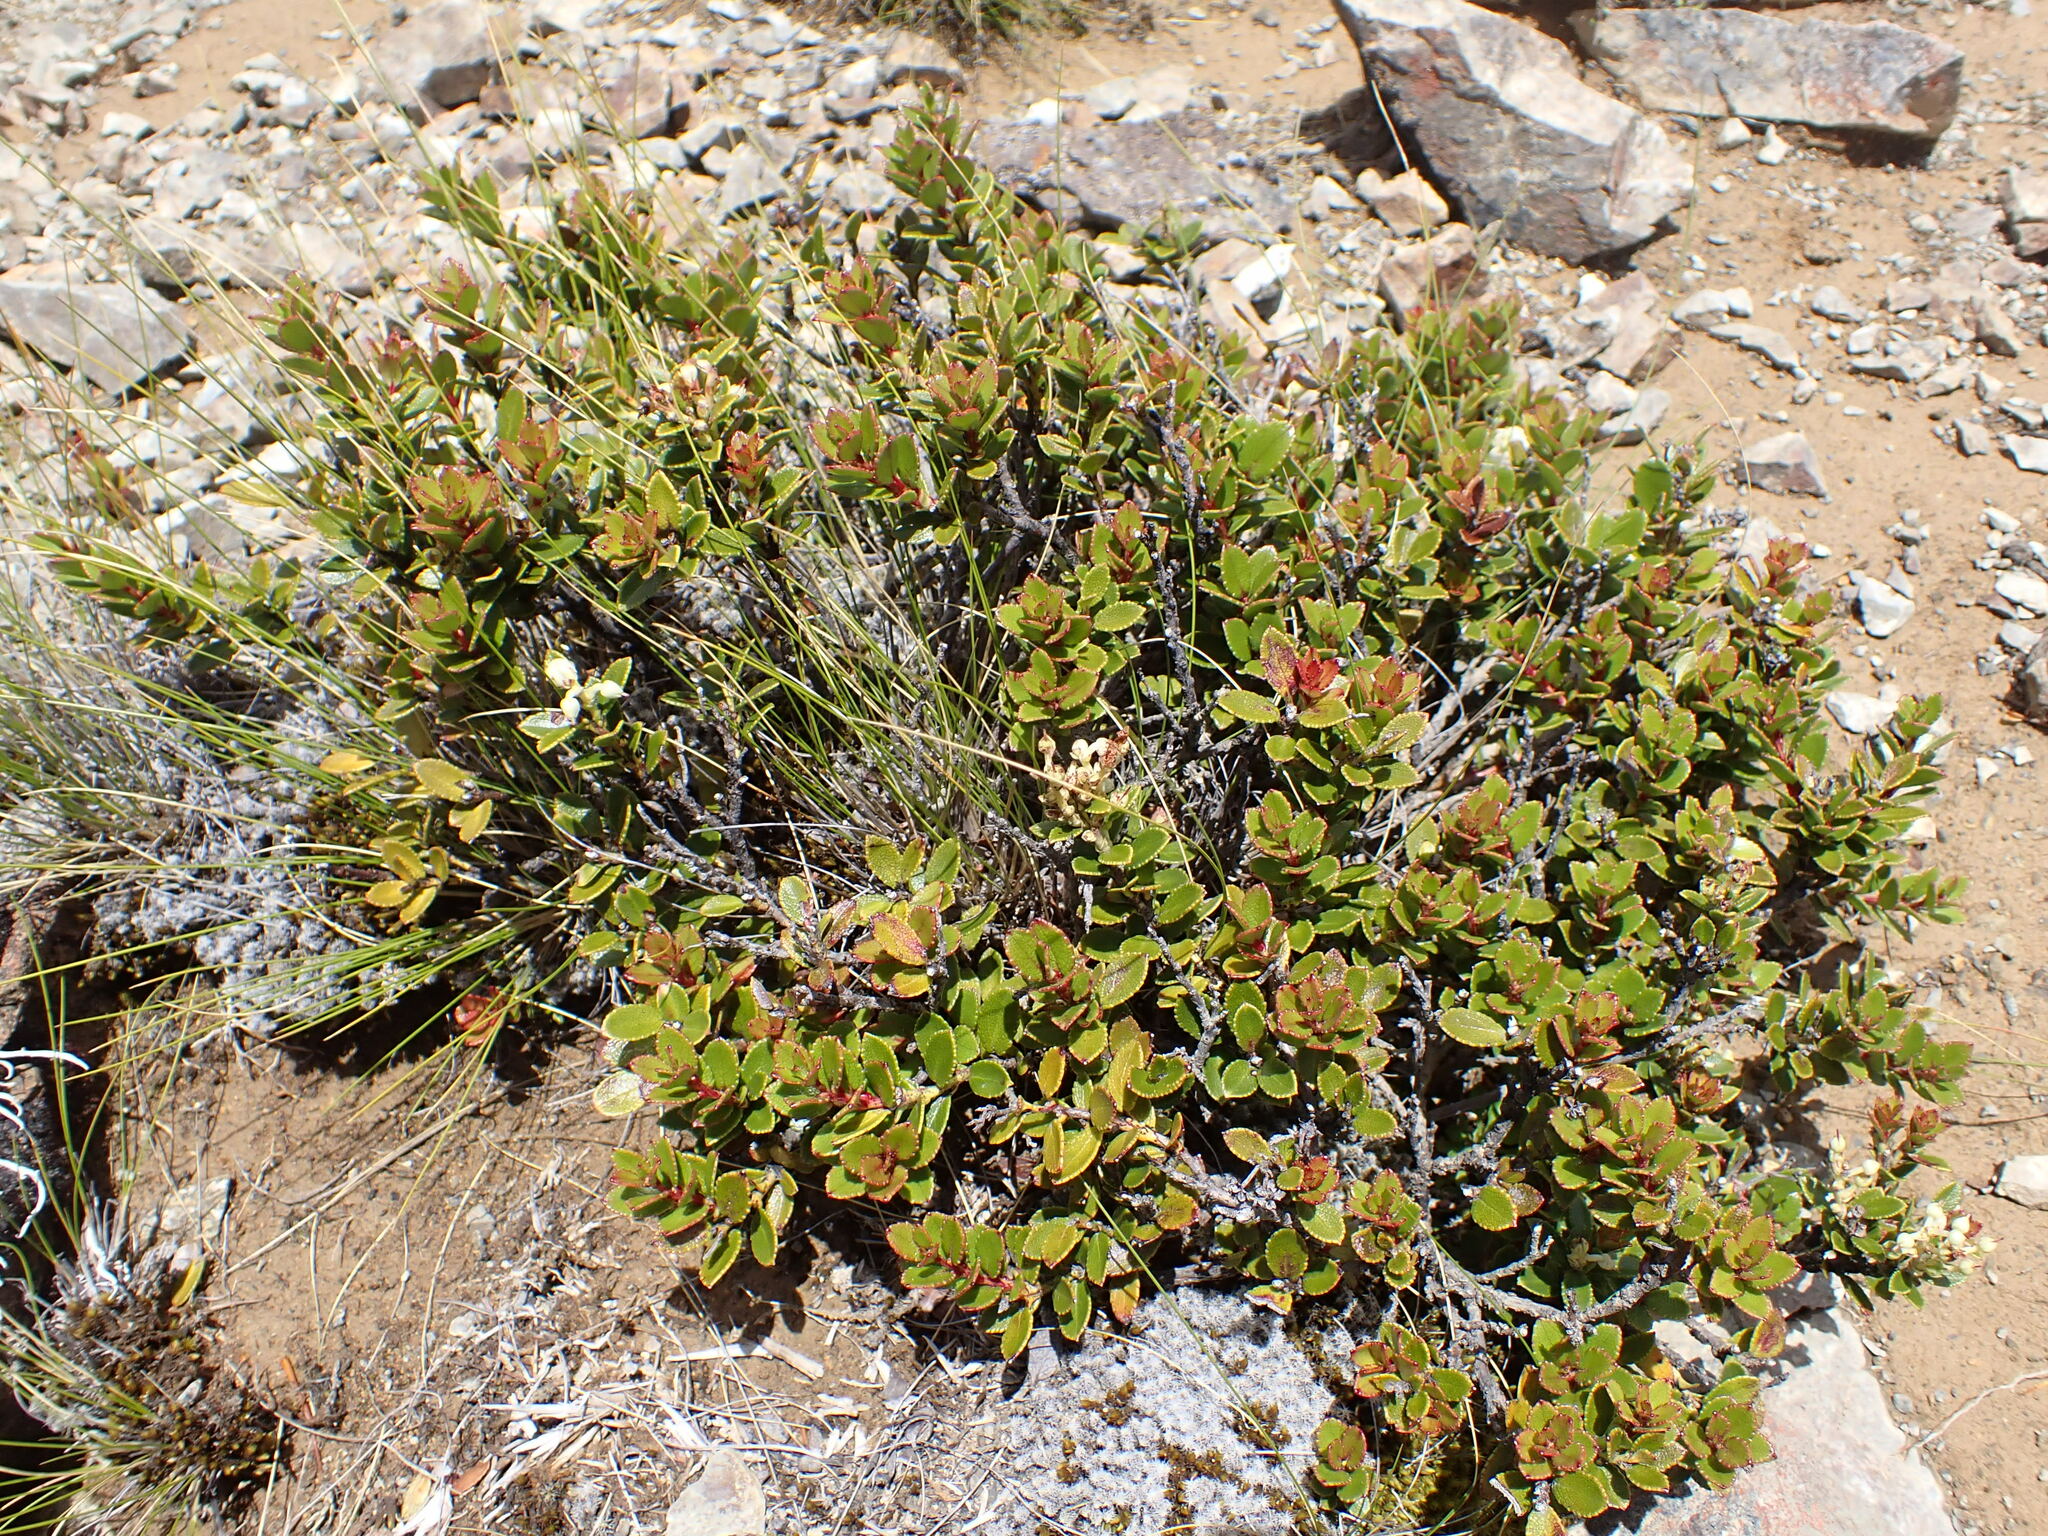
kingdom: Plantae
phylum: Tracheophyta
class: Magnoliopsida
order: Ericales
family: Ericaceae
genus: Gaultheria
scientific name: Gaultheria crassa
